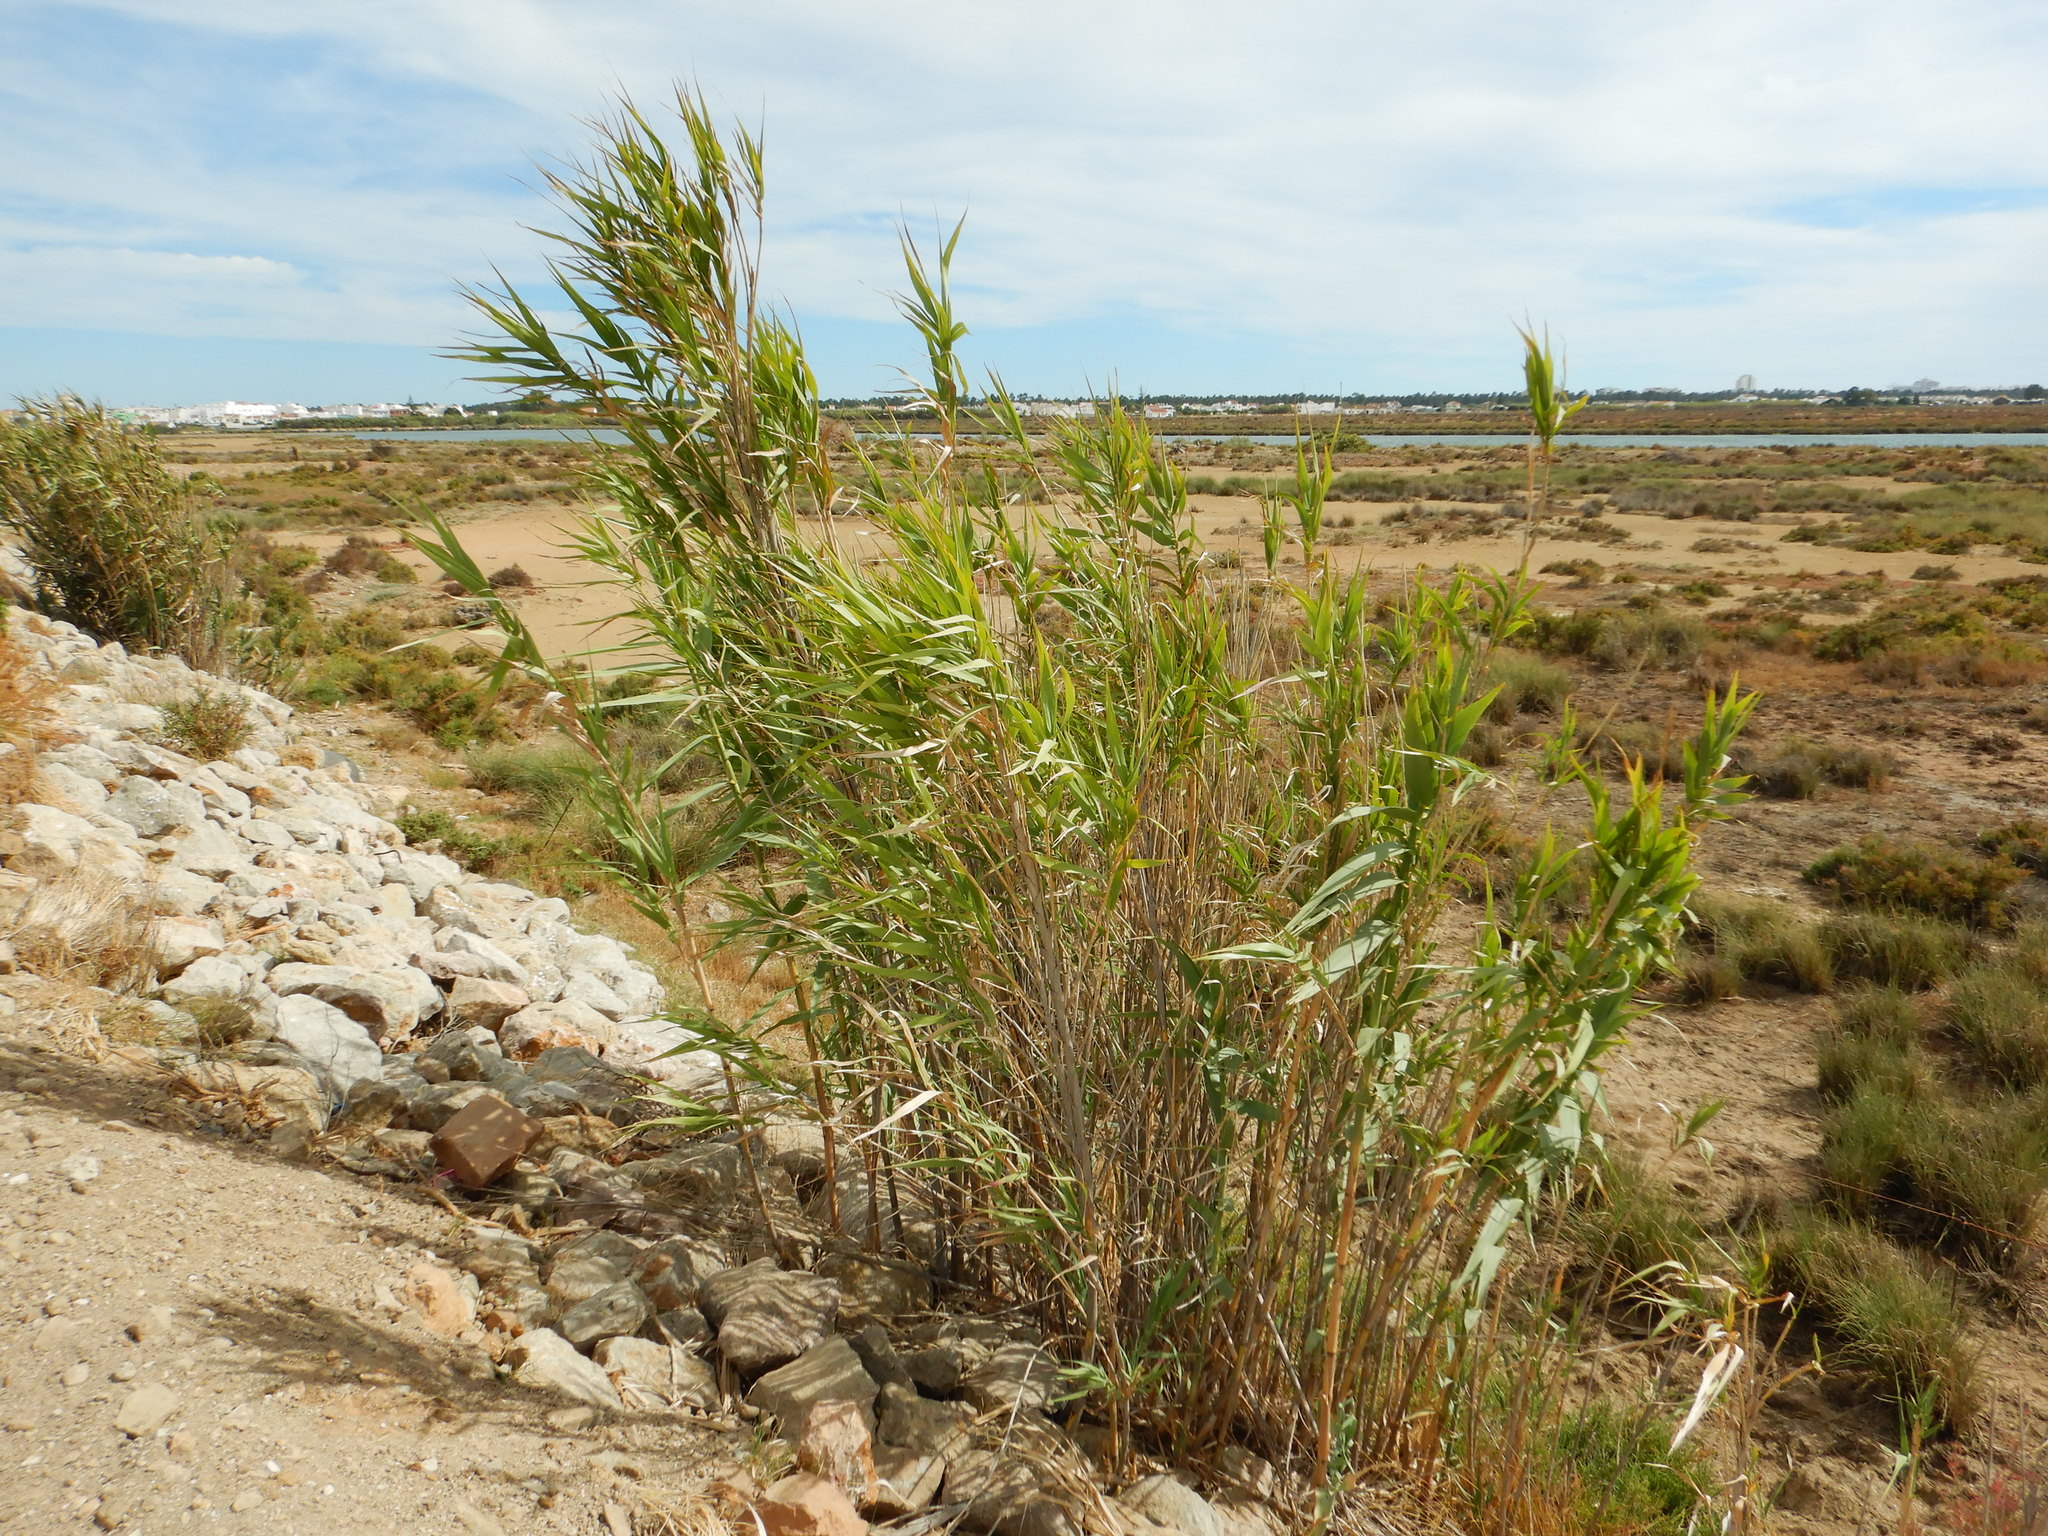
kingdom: Plantae
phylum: Tracheophyta
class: Liliopsida
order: Poales
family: Poaceae
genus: Arundo
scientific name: Arundo donax
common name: Giant reed
